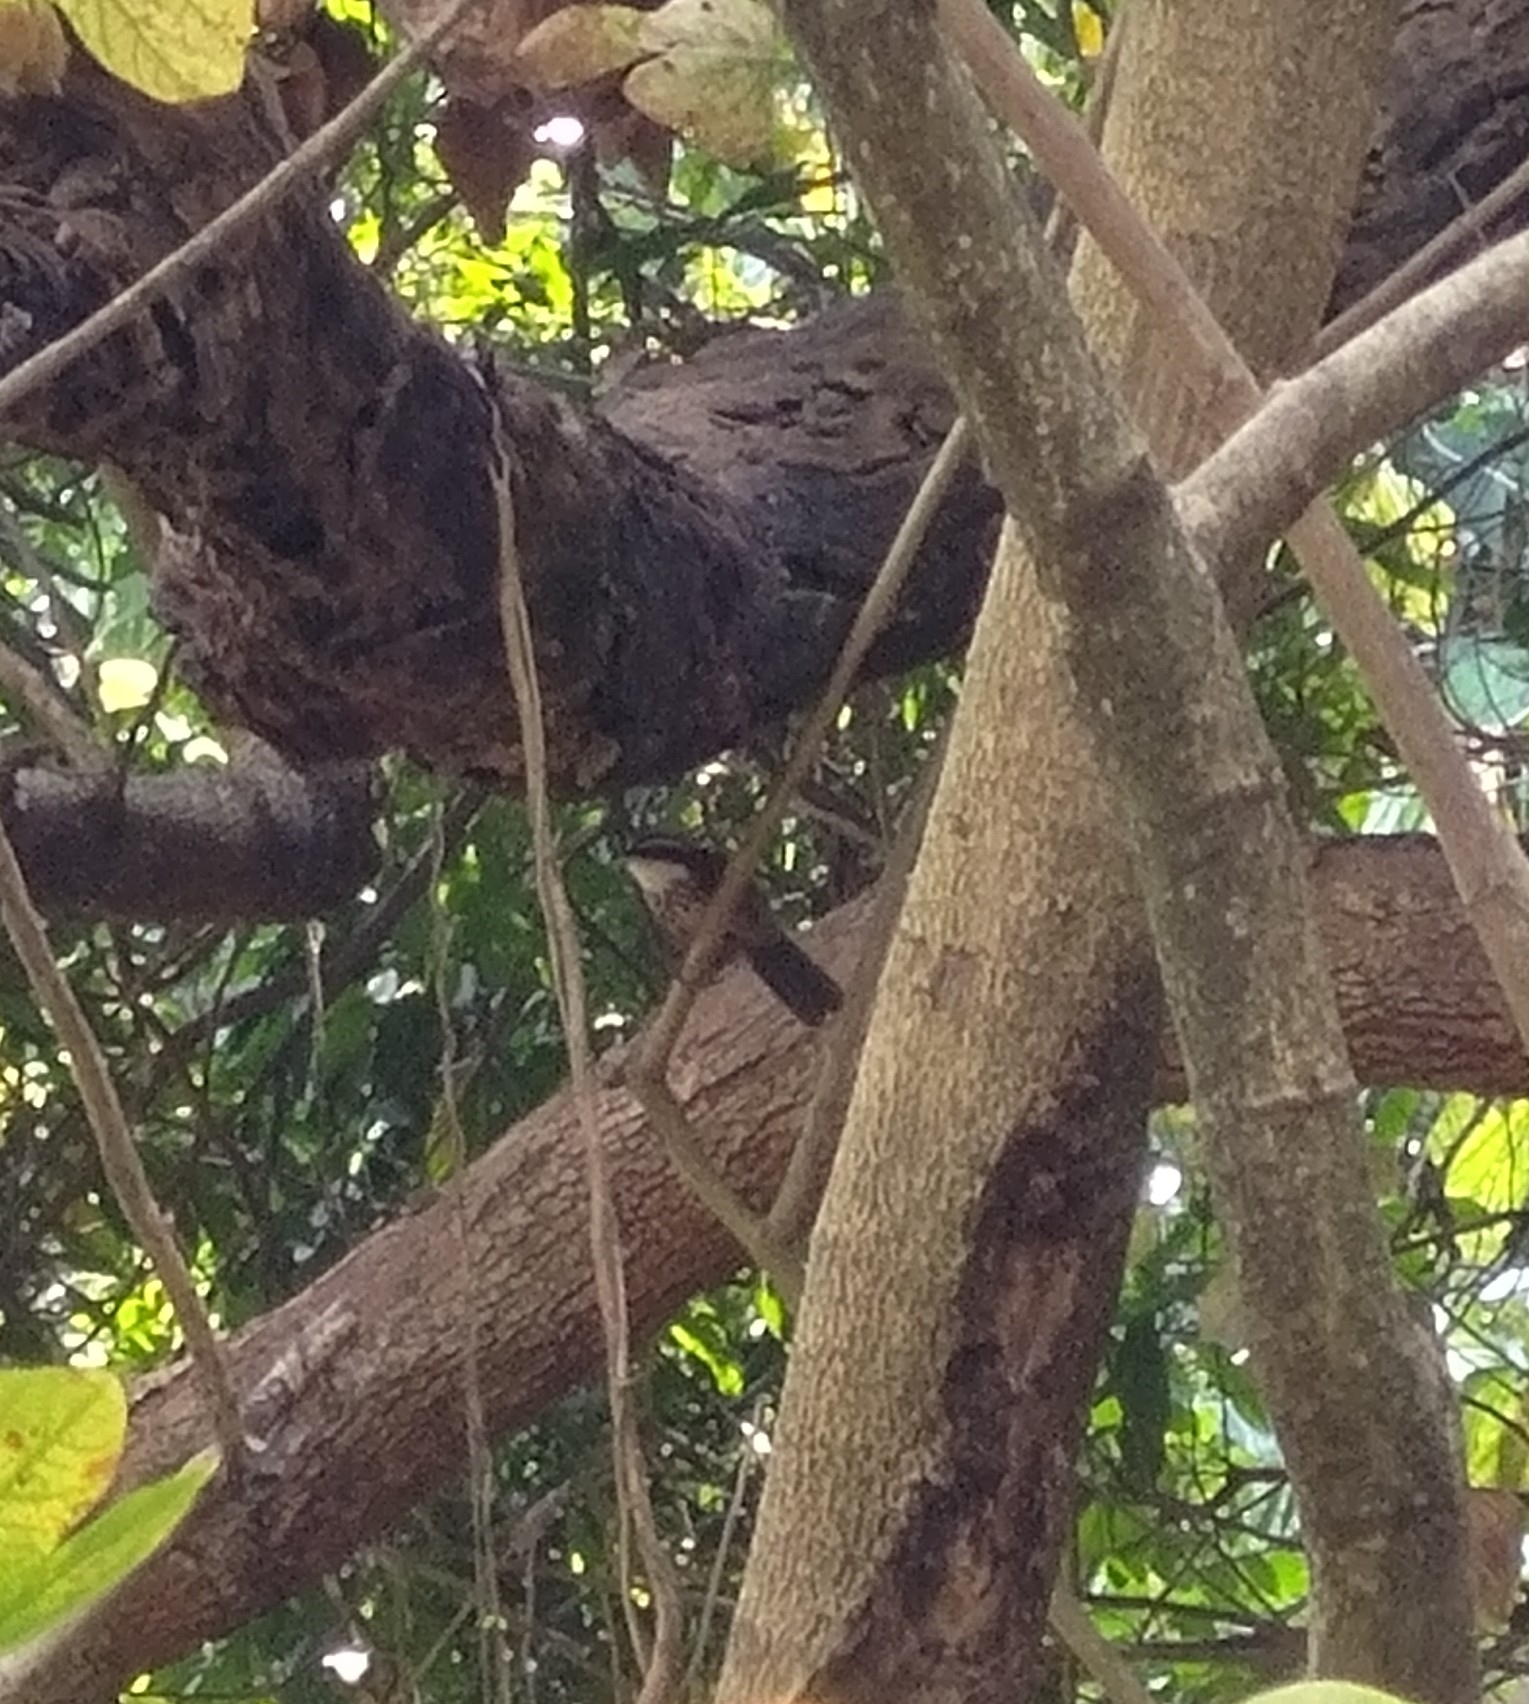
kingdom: Animalia
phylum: Chordata
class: Aves
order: Passeriformes
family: Timaliidae
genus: Pomatorhinus
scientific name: Pomatorhinus musicus
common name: Taiwan scimitar-babbler
